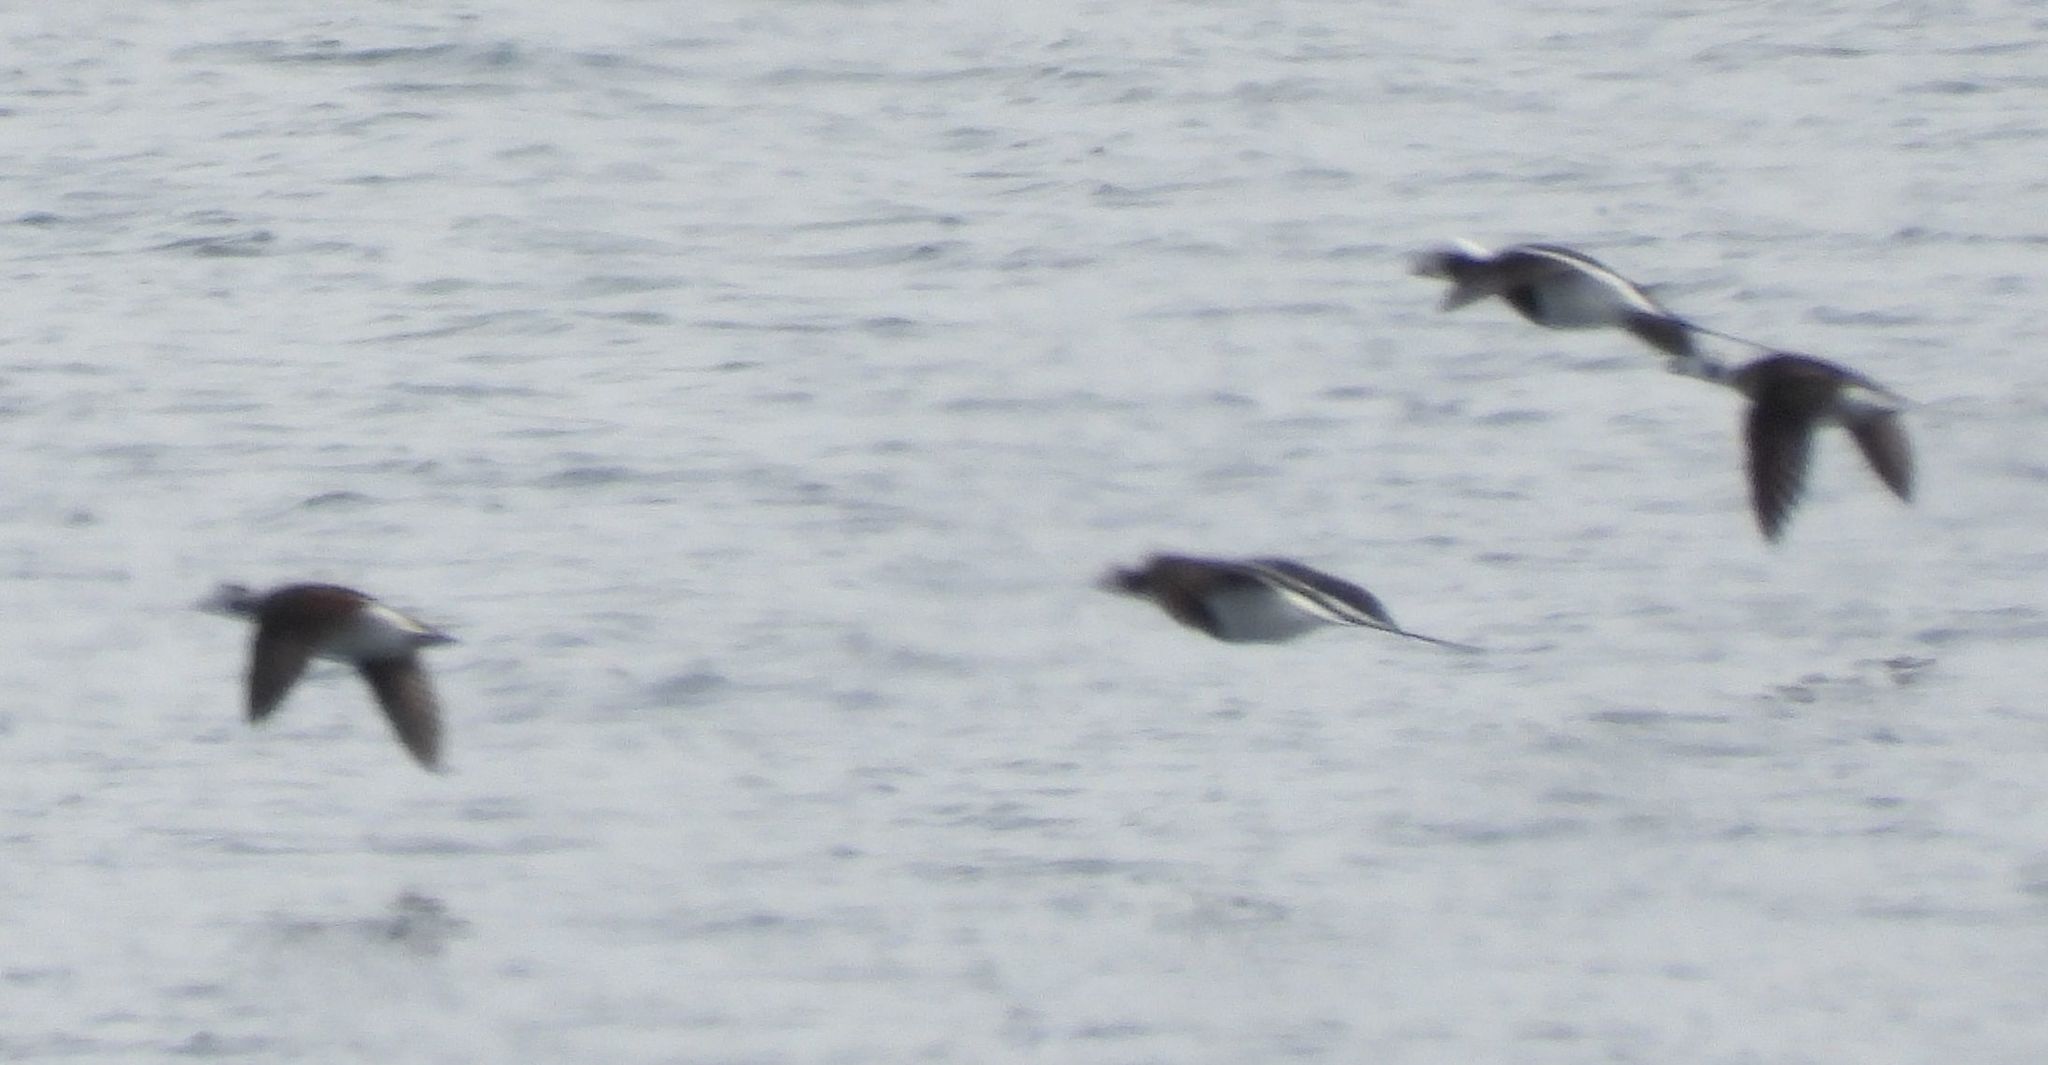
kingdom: Animalia
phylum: Chordata
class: Aves
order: Anseriformes
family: Anatidae
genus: Clangula
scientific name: Clangula hyemalis
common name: Long-tailed duck
